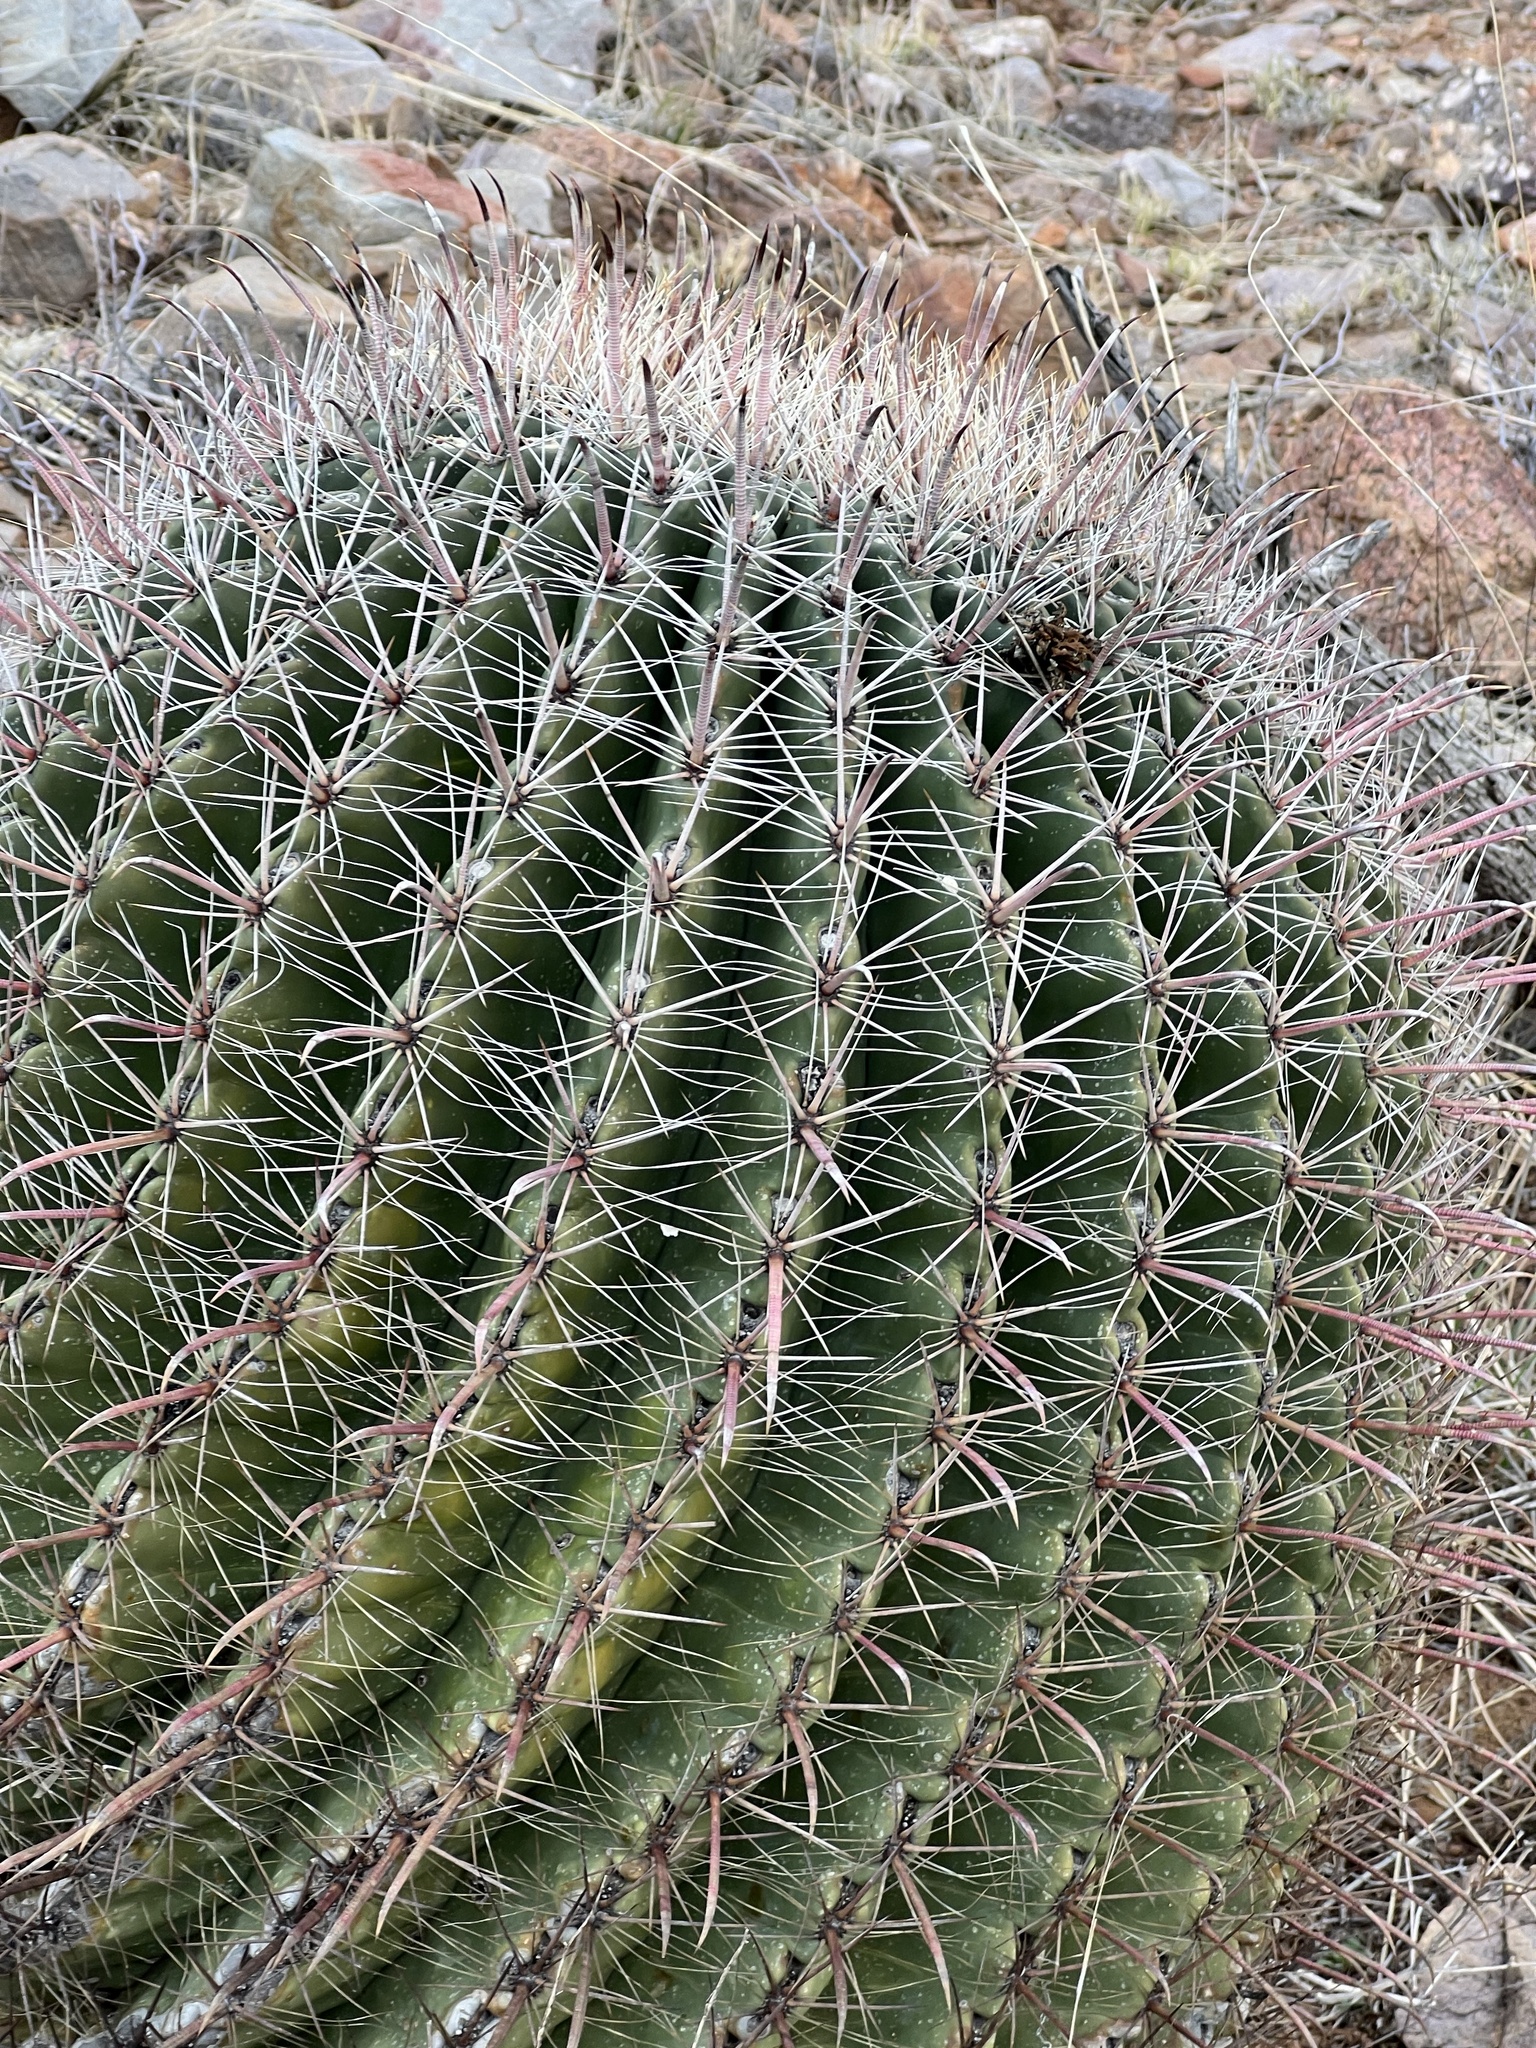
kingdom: Plantae
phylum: Tracheophyta
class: Magnoliopsida
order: Caryophyllales
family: Cactaceae
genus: Ferocactus
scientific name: Ferocactus wislizeni
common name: Candy barrel cactus
